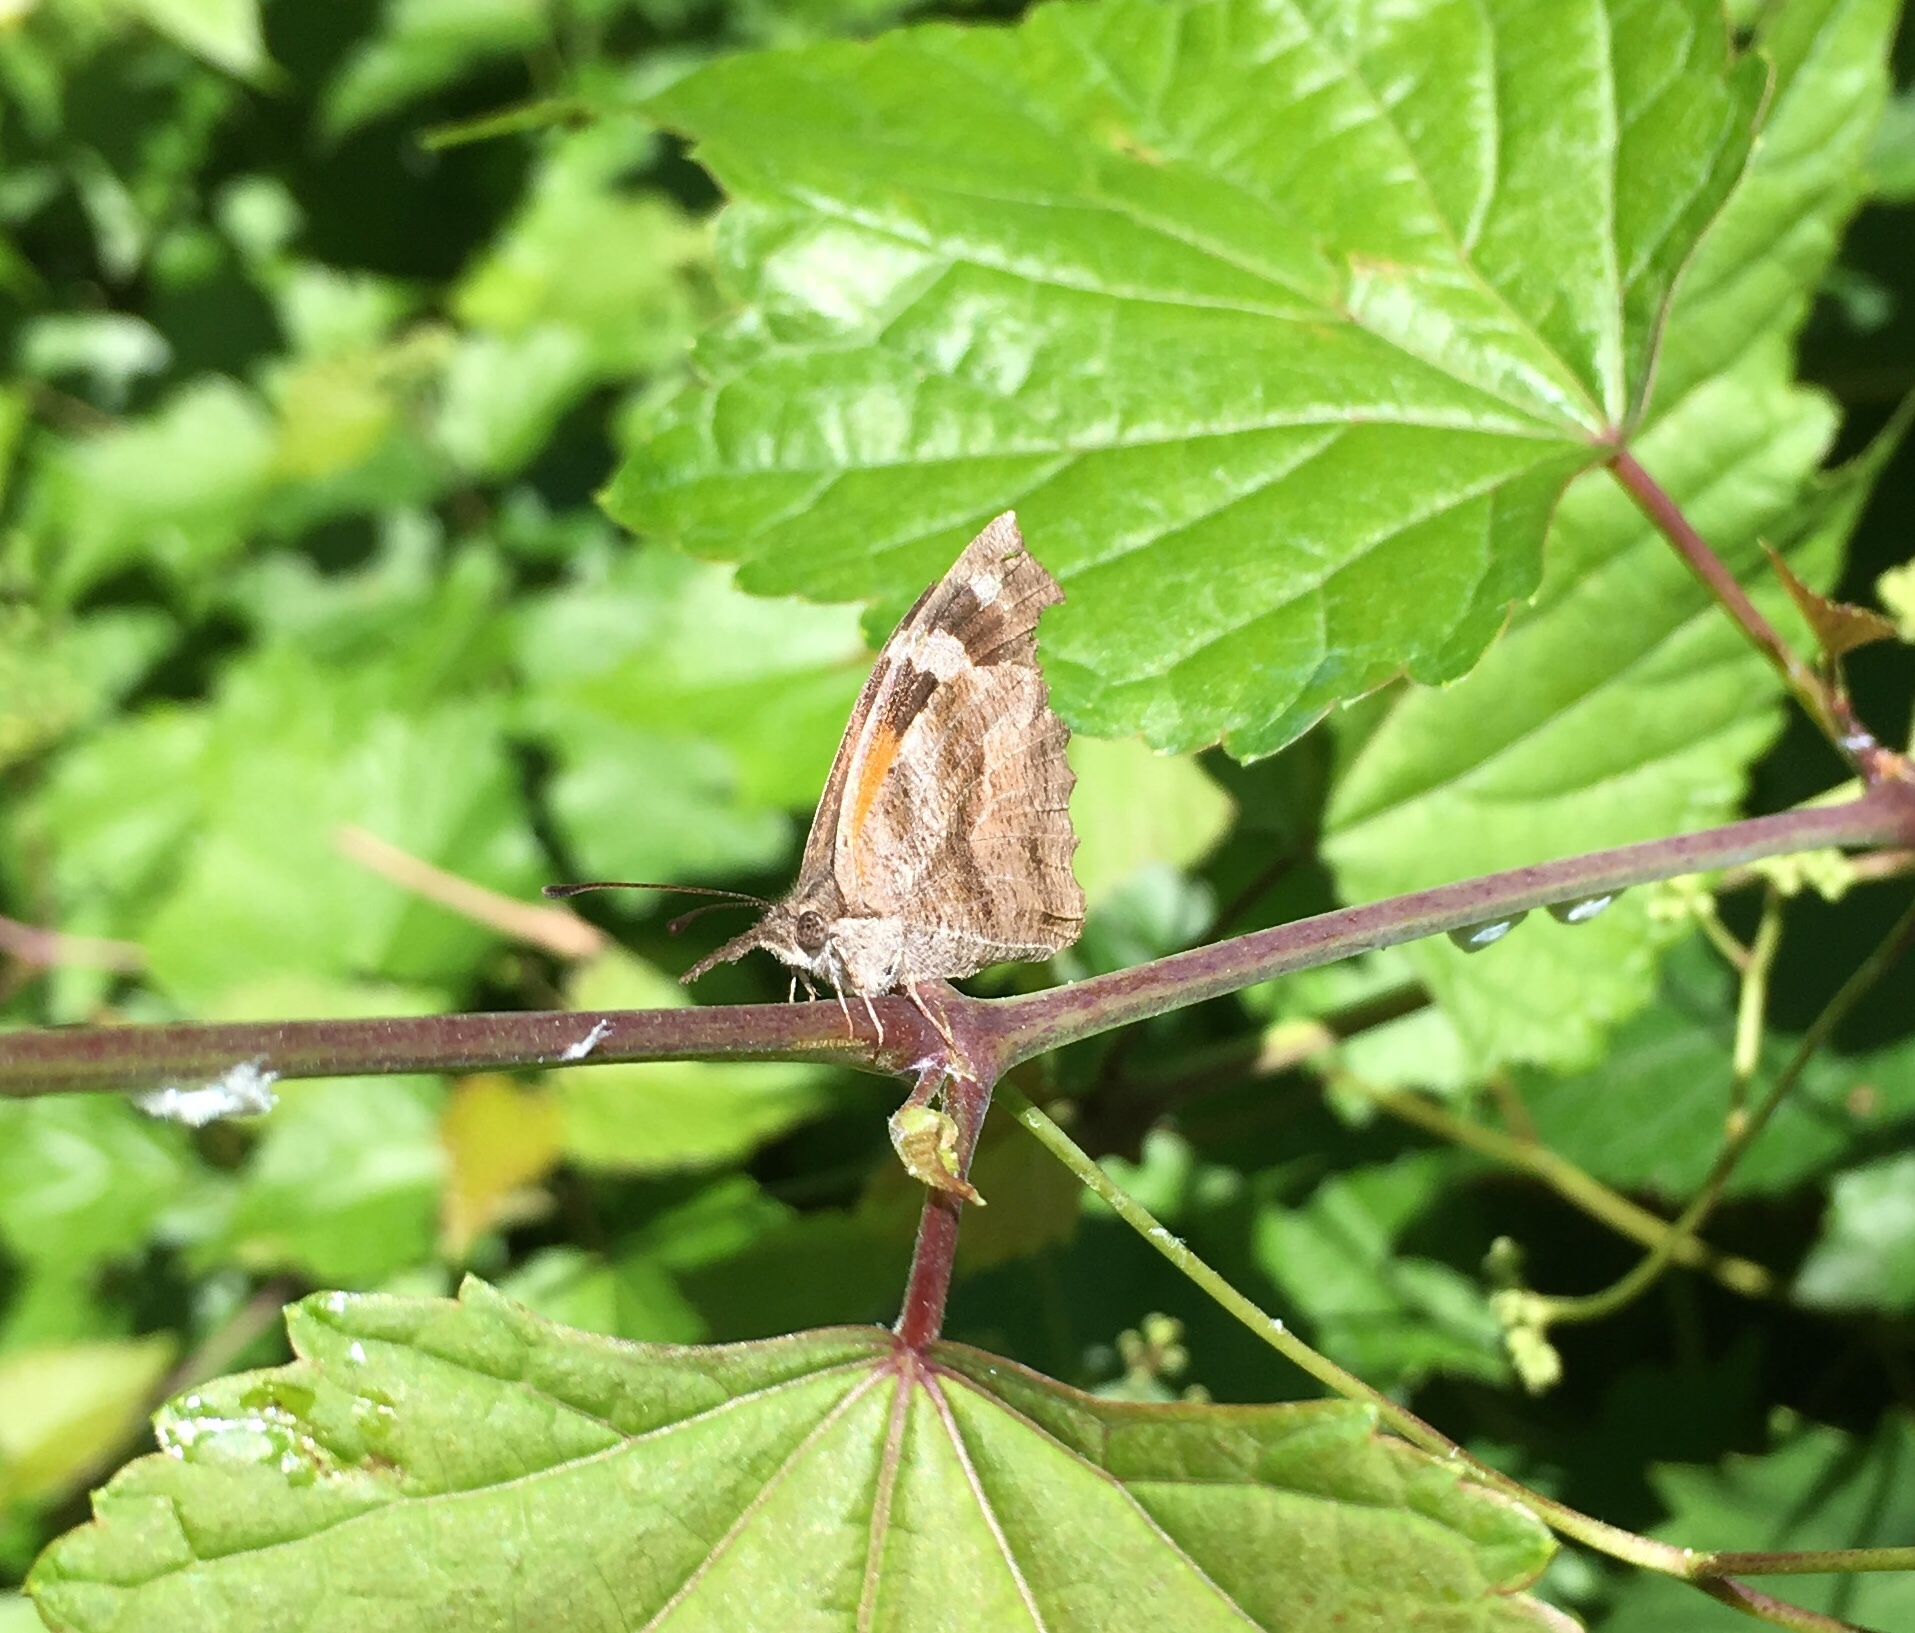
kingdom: Animalia
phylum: Arthropoda
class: Insecta
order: Lepidoptera
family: Nymphalidae
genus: Libytheana
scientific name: Libytheana carinenta
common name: American snout
